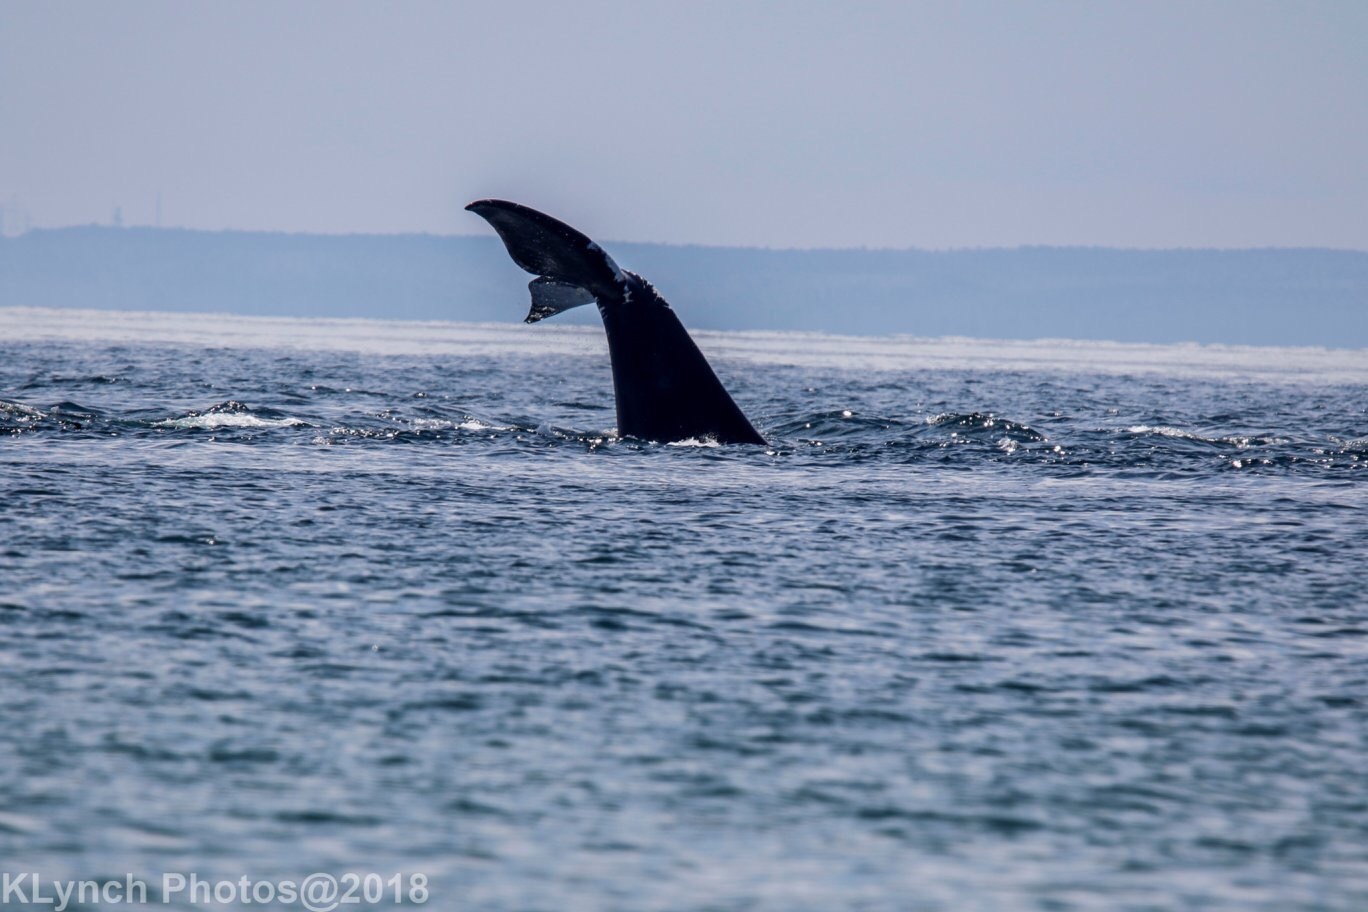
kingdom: Animalia
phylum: Chordata
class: Mammalia
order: Cetacea
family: Balaenidae
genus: Eubalaena
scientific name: Eubalaena glacialis
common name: North atlantic right whale
